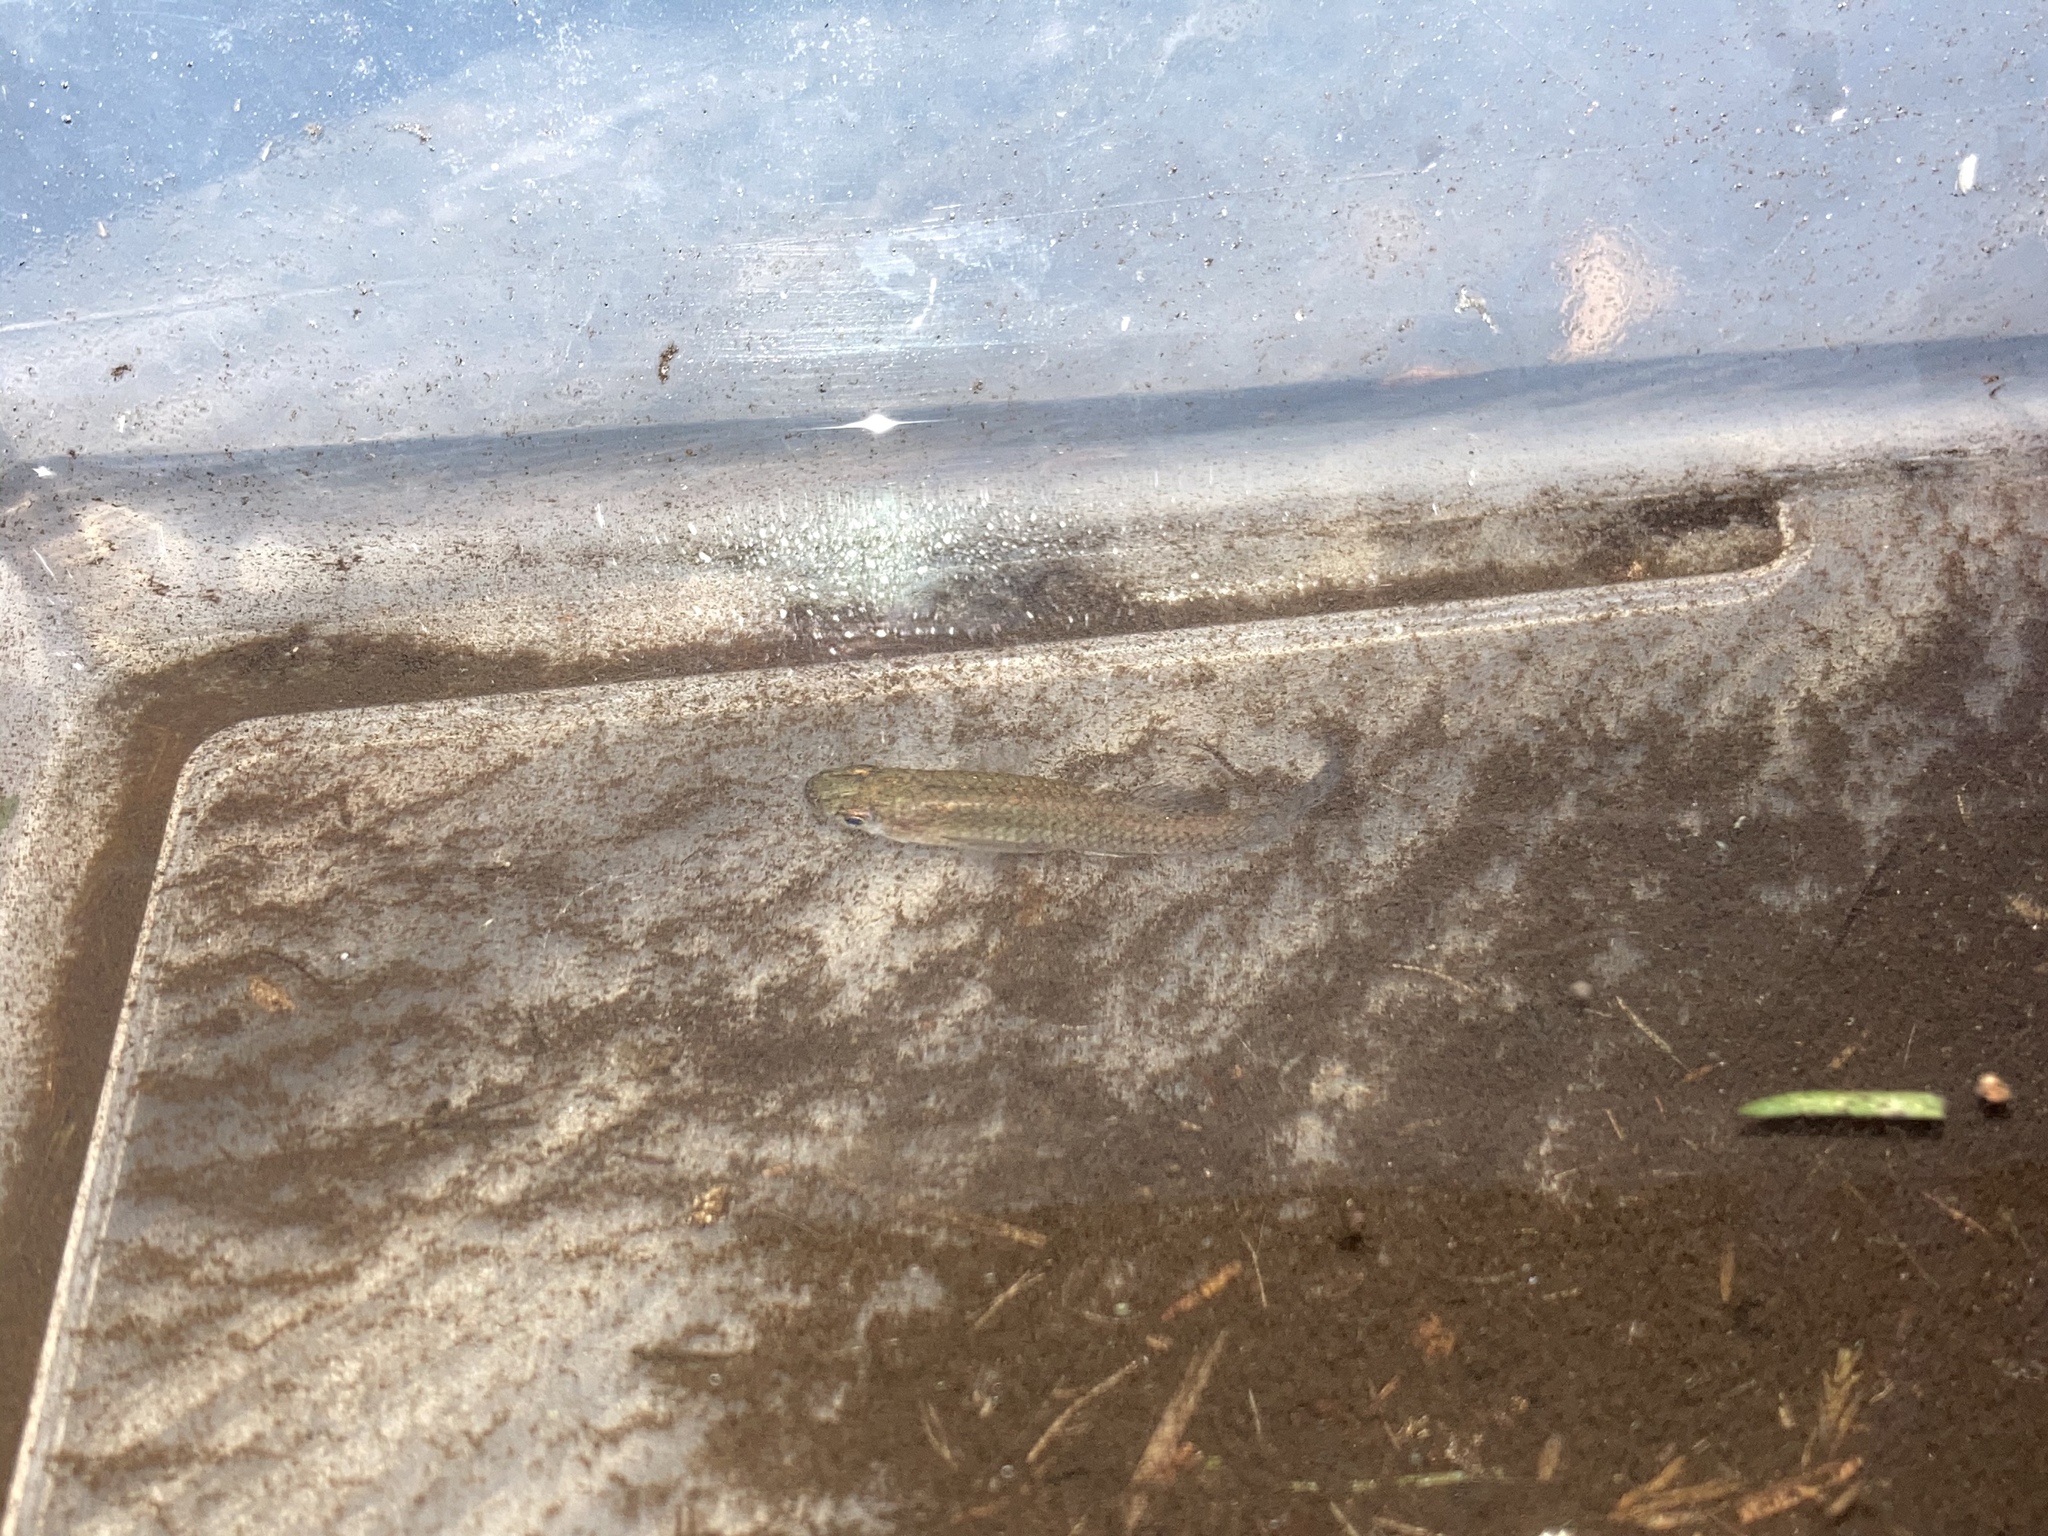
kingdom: Animalia
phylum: Chordata
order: Cyprinodontiformes
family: Poeciliidae
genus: Gambusia
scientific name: Gambusia holbrooki
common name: Eastern mosquitofish
